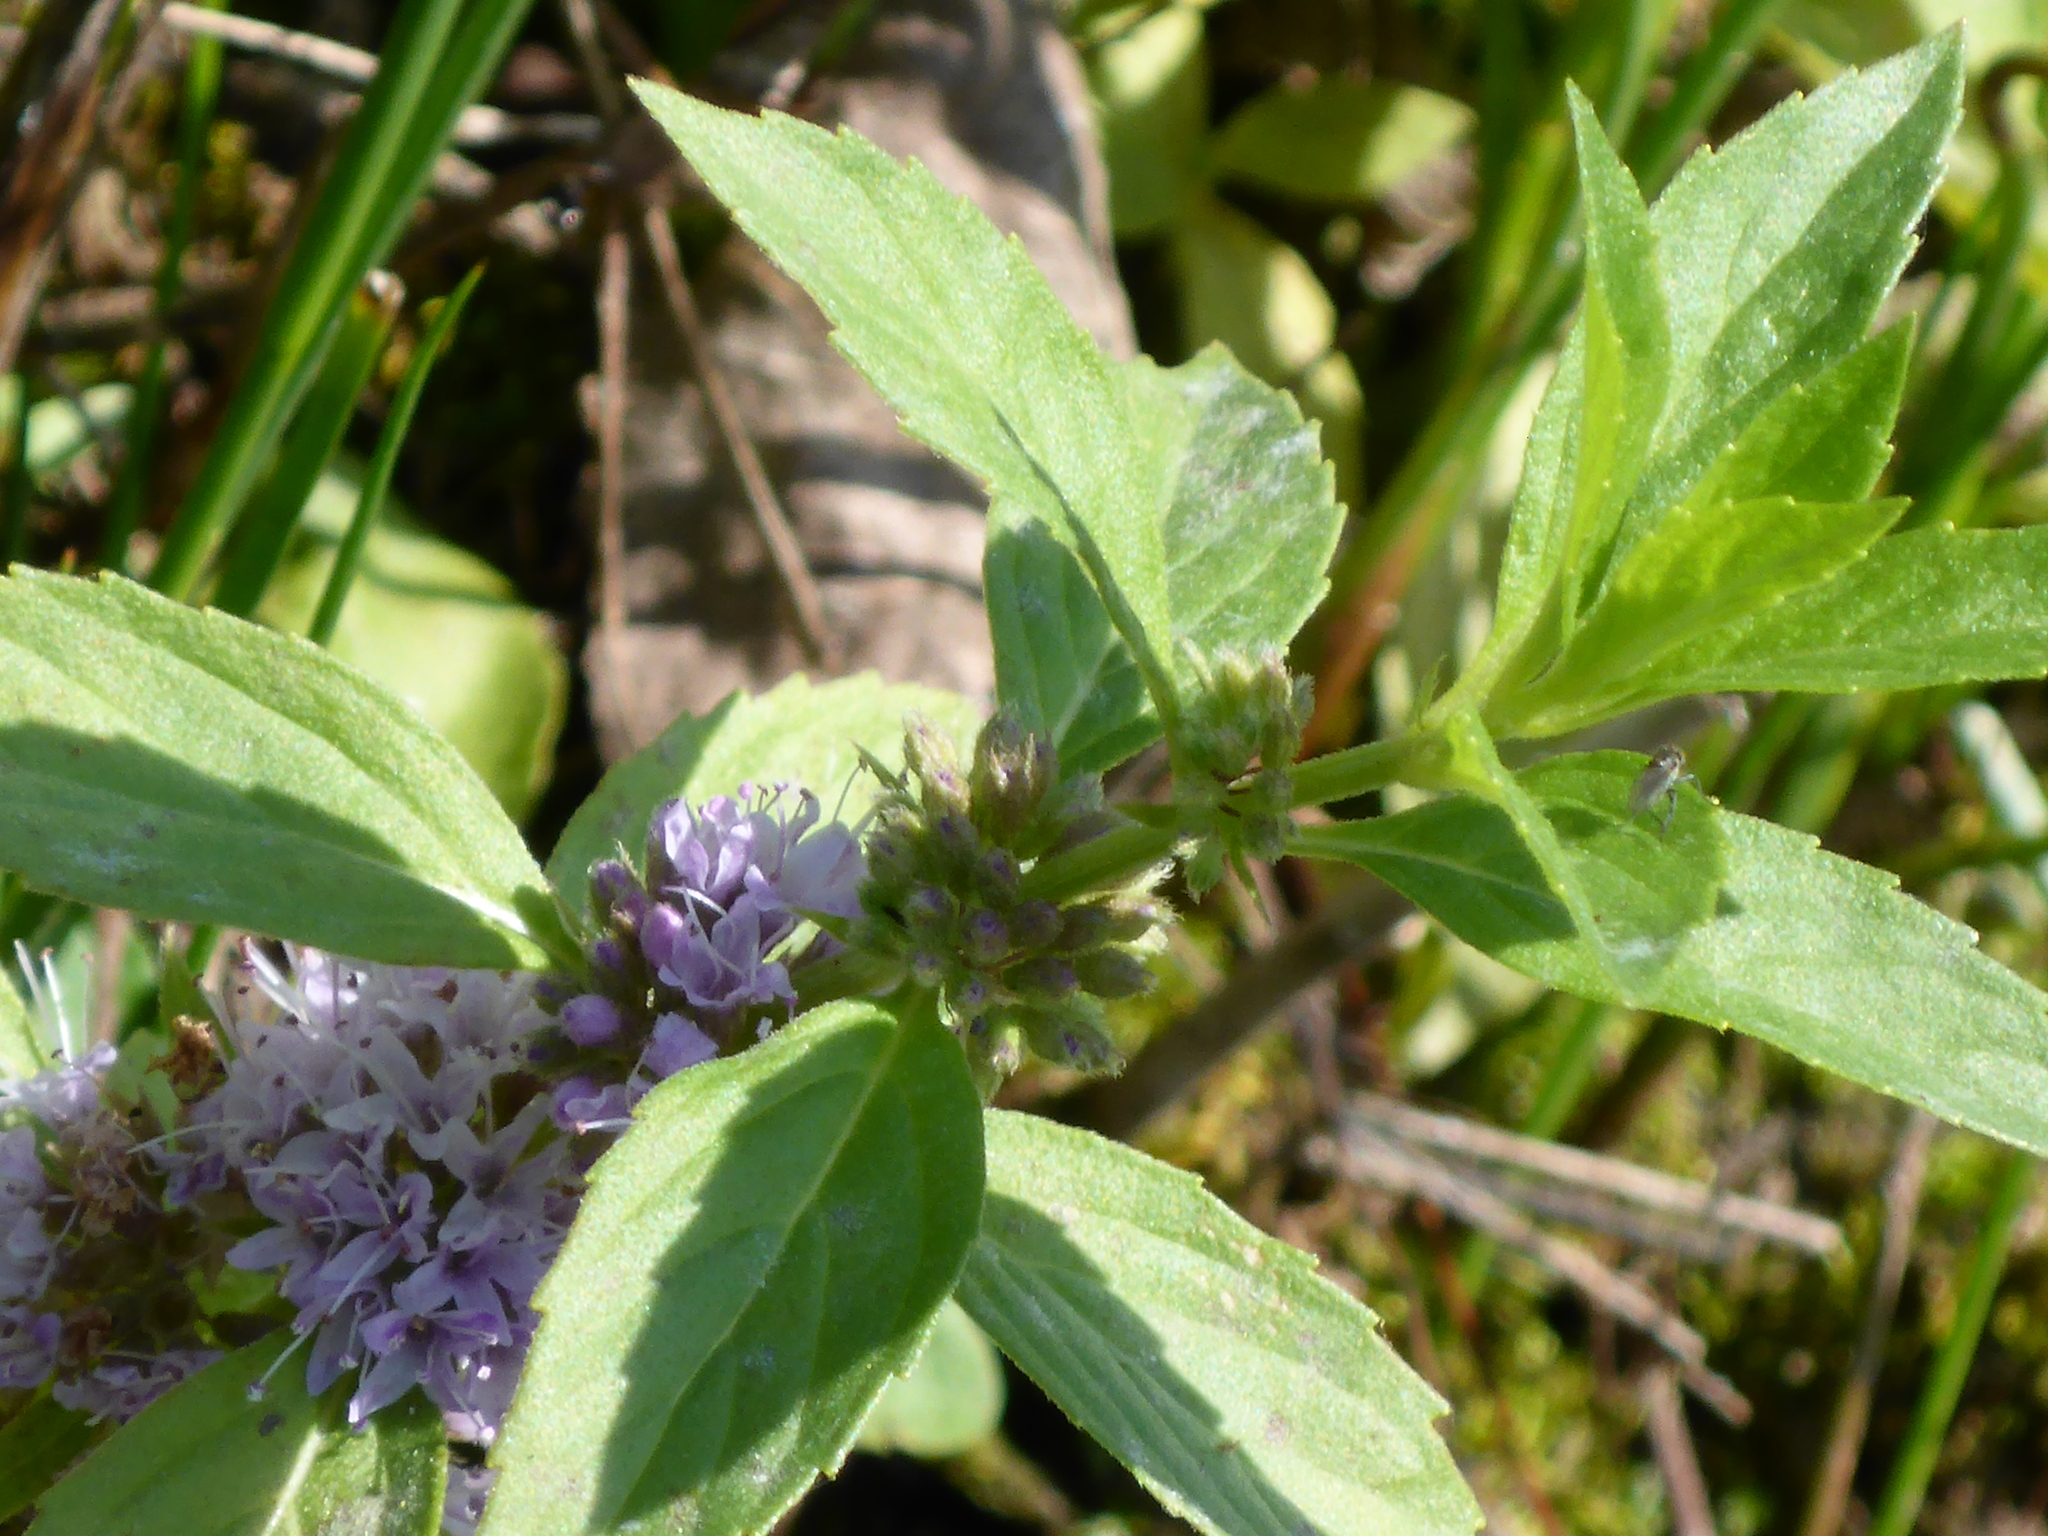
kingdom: Plantae
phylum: Tracheophyta
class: Magnoliopsida
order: Lamiales
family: Lamiaceae
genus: Mentha
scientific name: Mentha canadensis
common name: American corn mint
